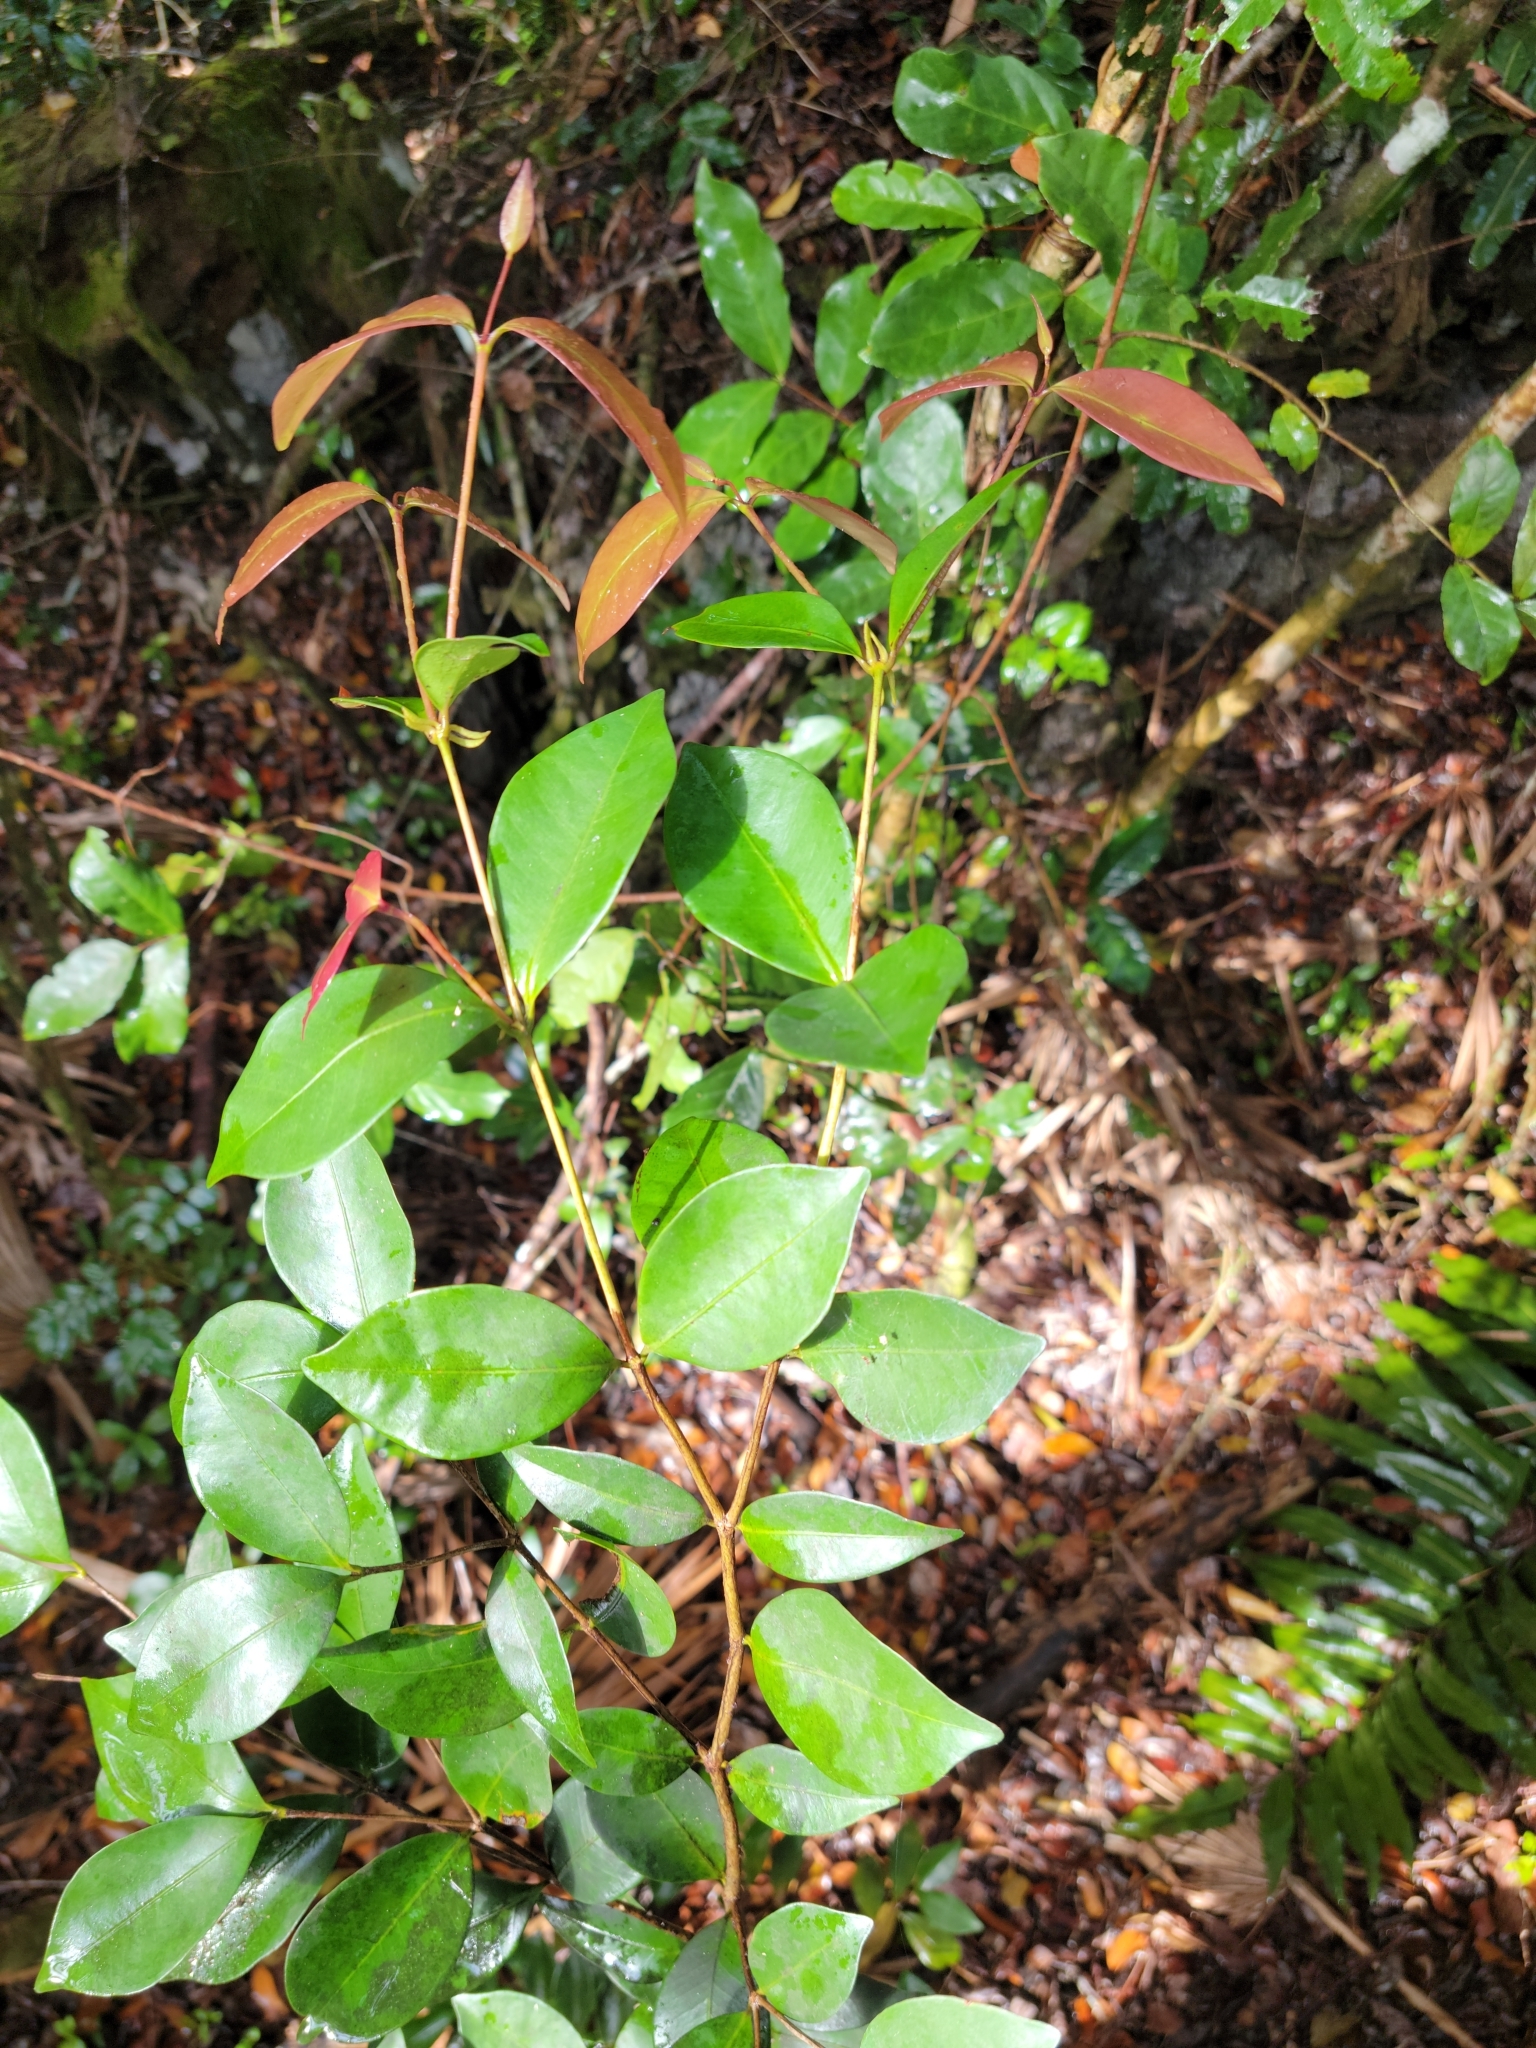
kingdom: Plantae
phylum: Tracheophyta
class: Magnoliopsida
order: Myrtales
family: Myrtaceae
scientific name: Myrtaceae
